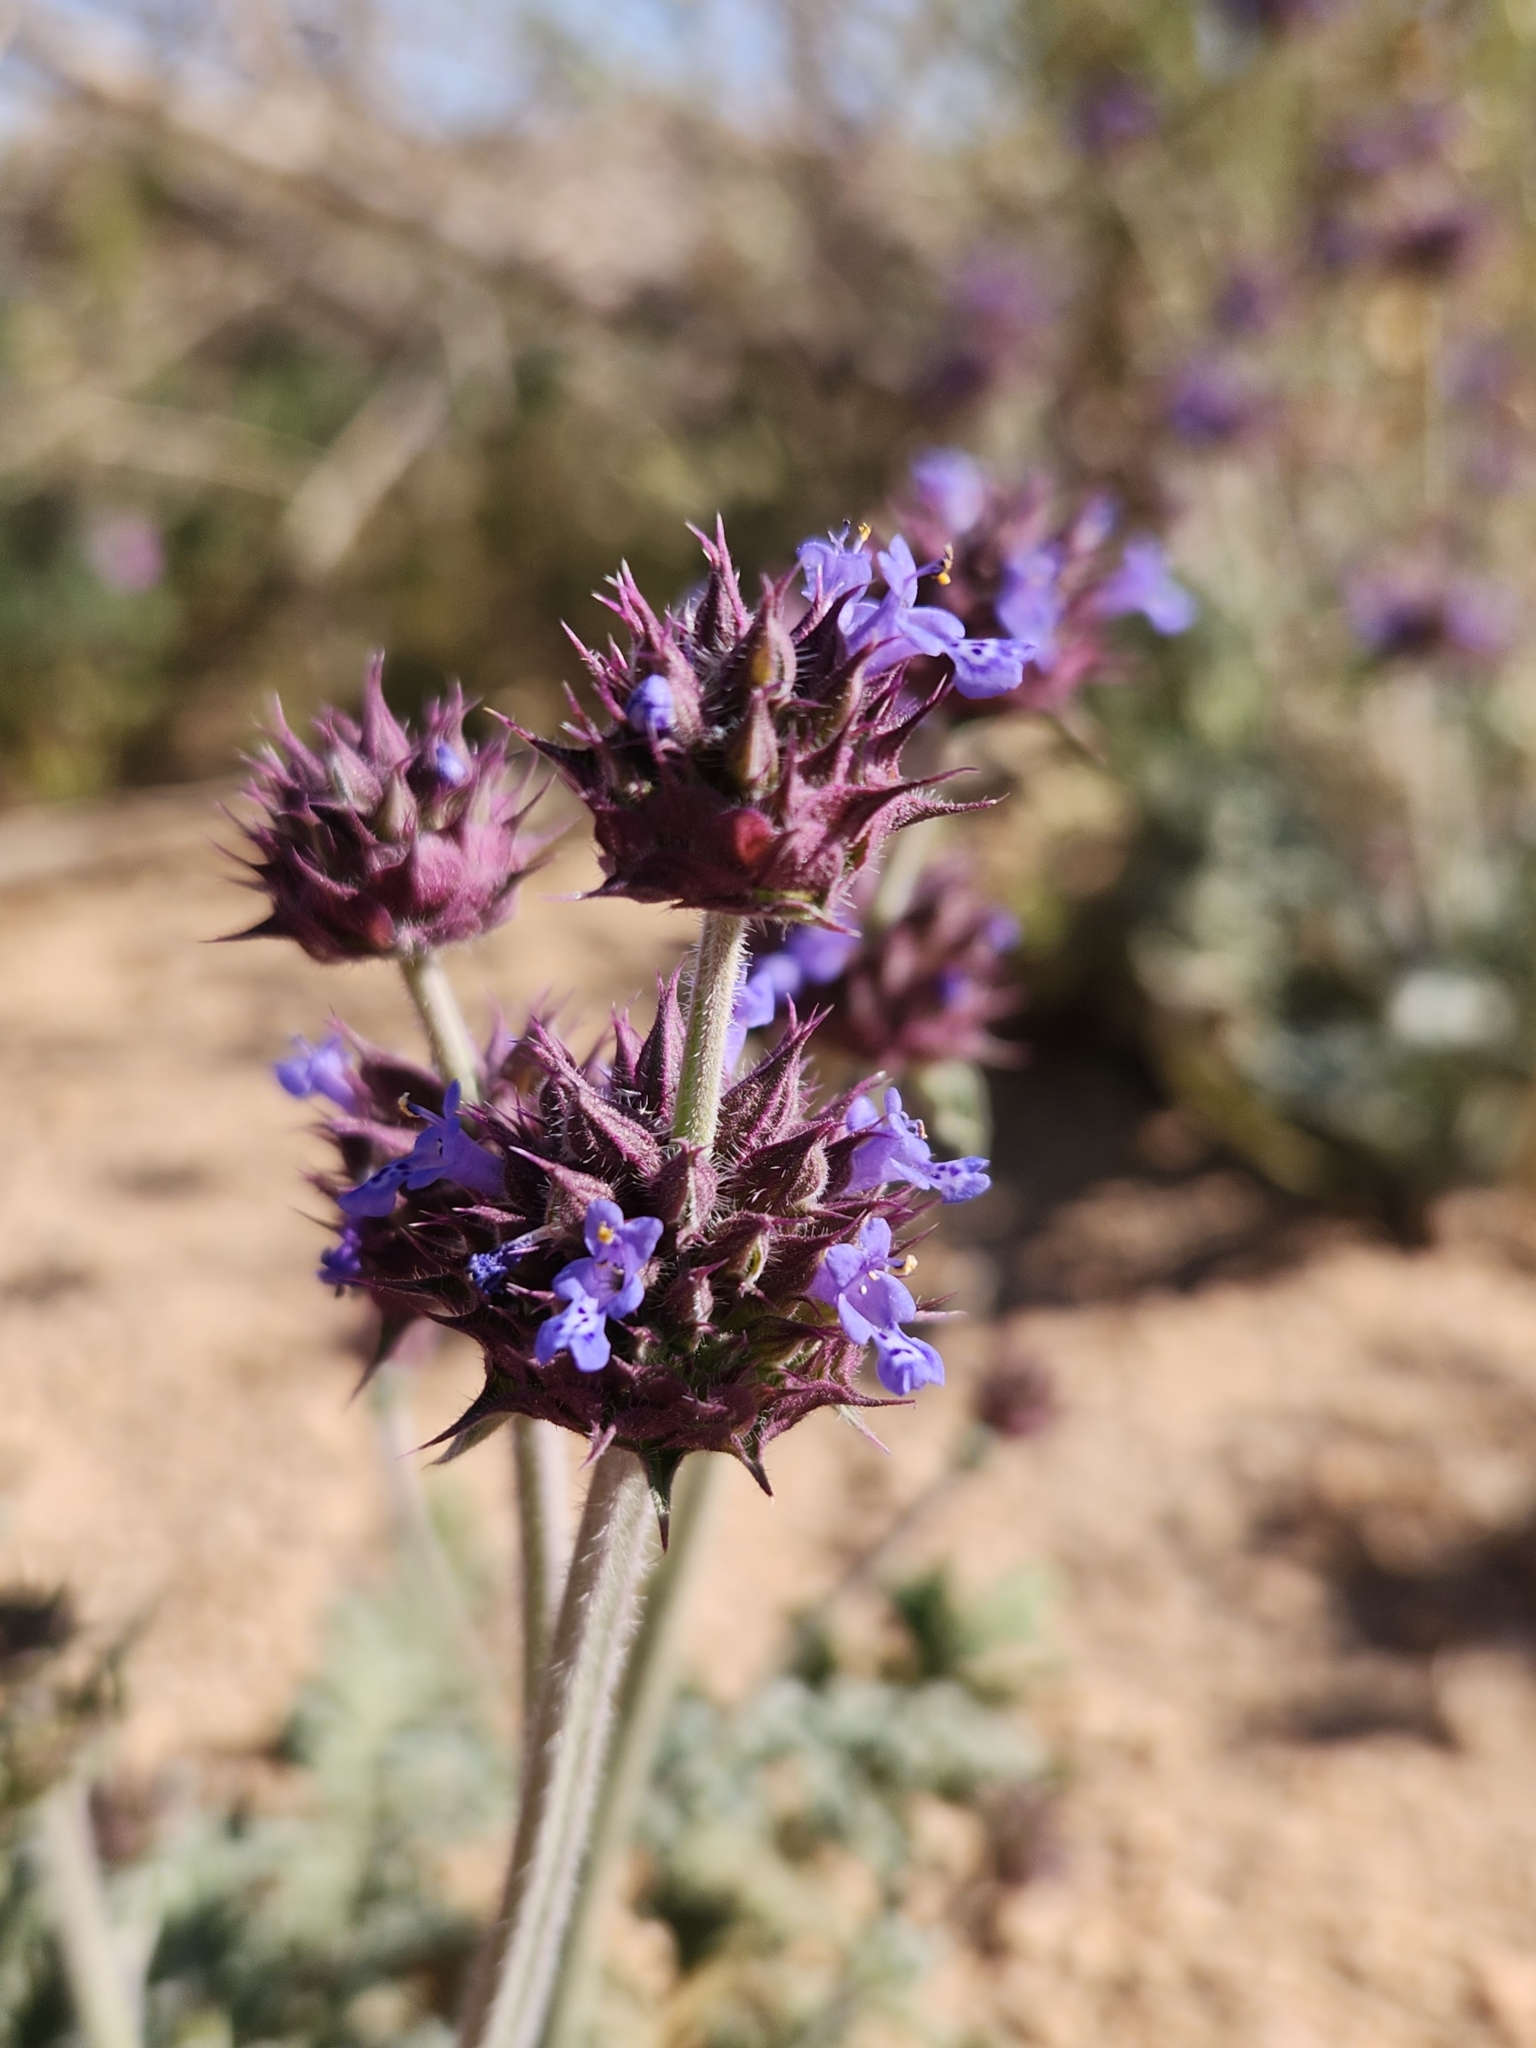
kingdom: Plantae
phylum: Tracheophyta
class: Magnoliopsida
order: Lamiales
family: Lamiaceae
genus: Salvia
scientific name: Salvia columbariae
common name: Chia
